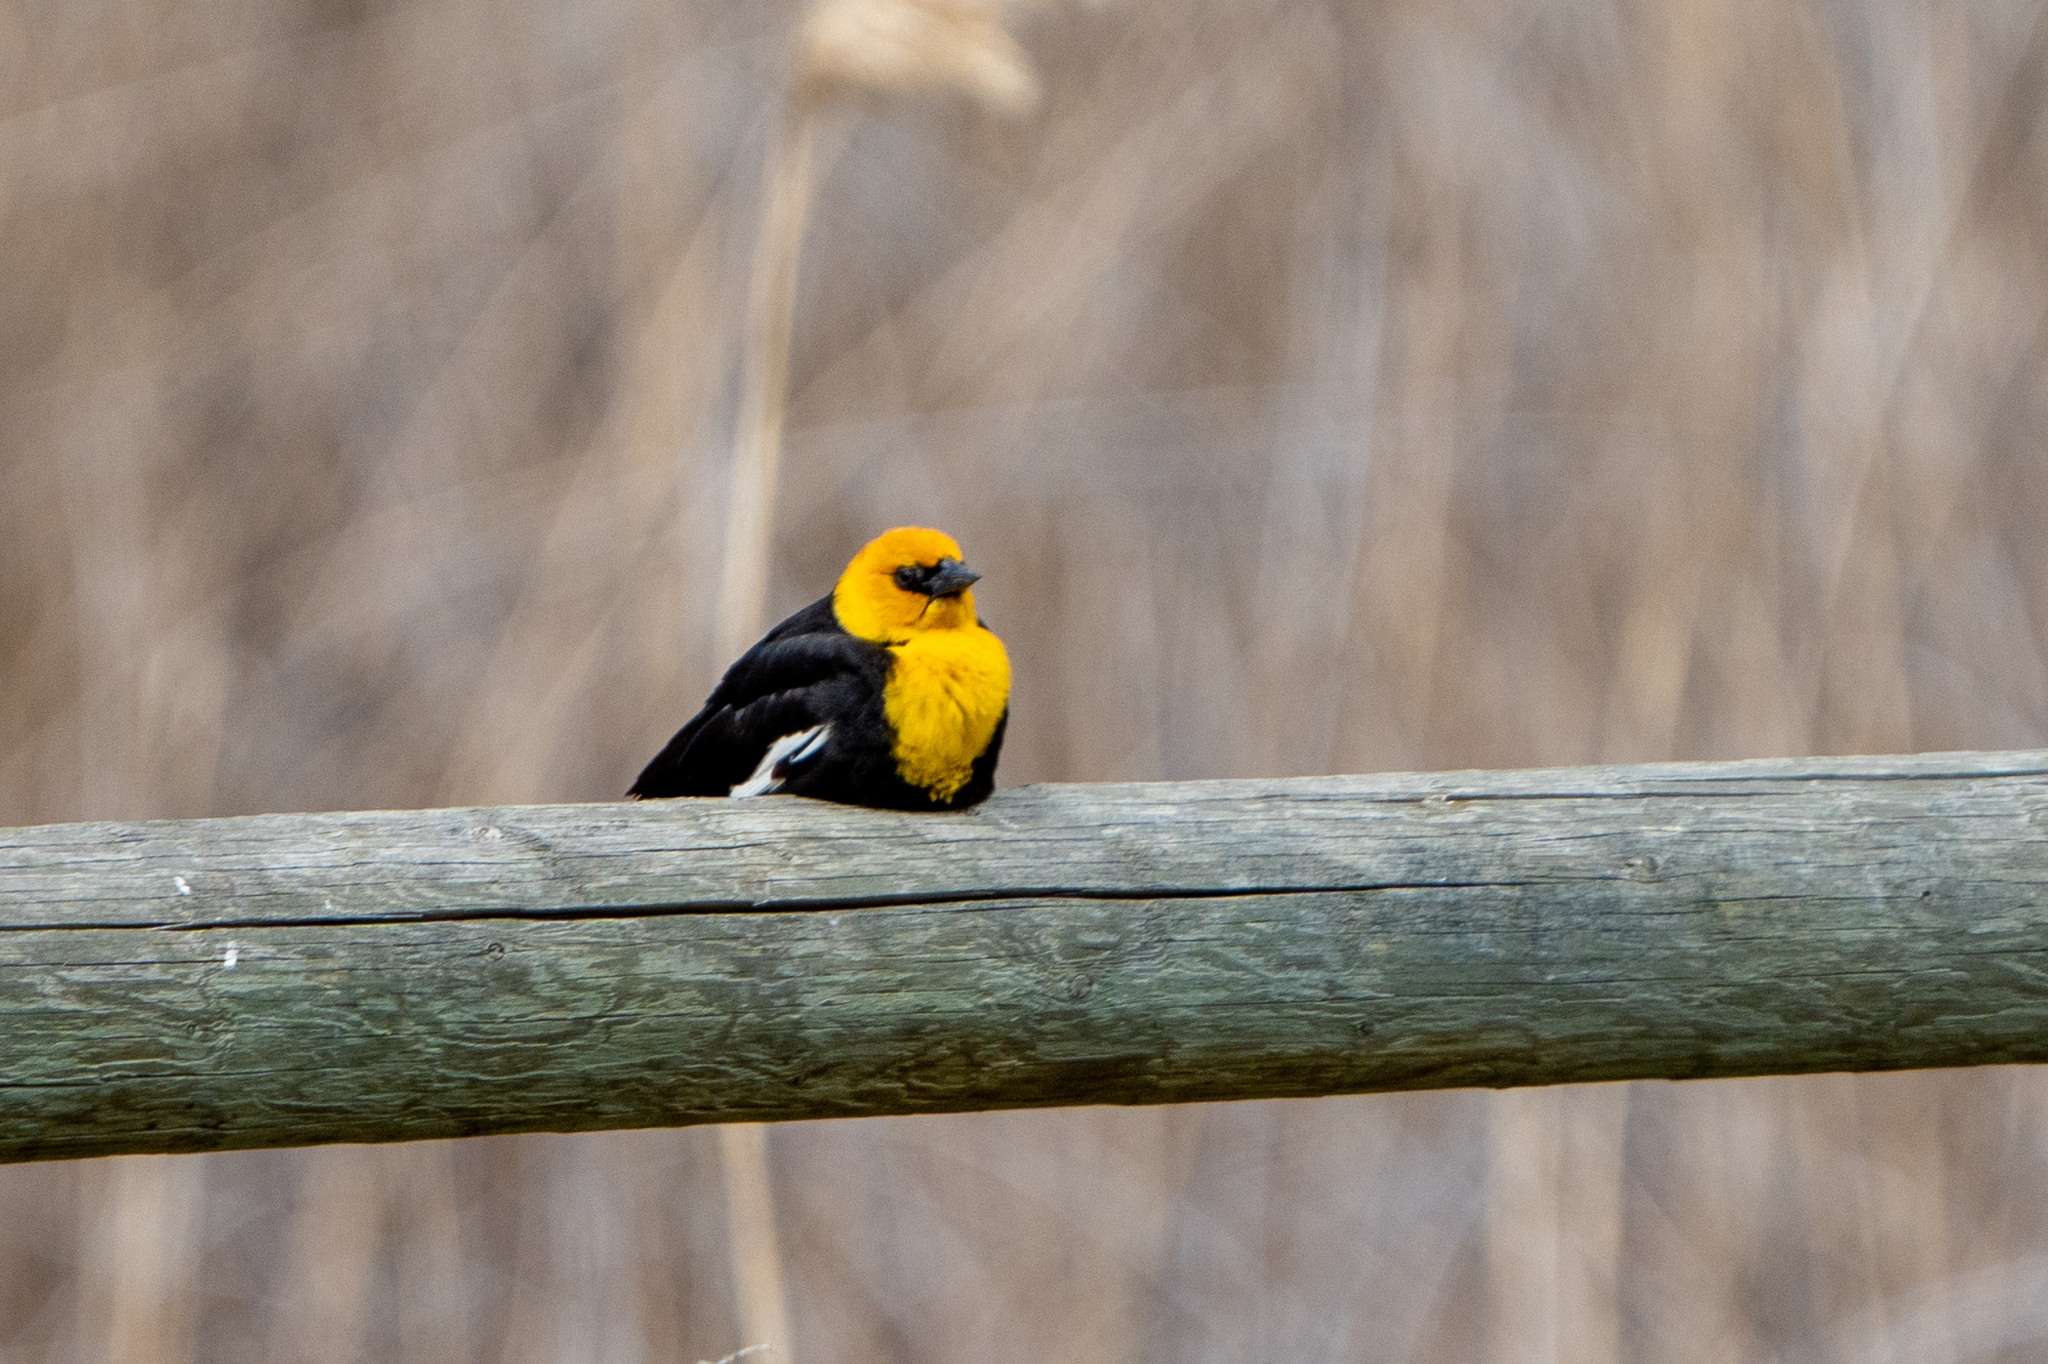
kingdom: Animalia
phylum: Chordata
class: Aves
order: Passeriformes
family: Icteridae
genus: Xanthocephalus
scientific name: Xanthocephalus xanthocephalus
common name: Yellow-headed blackbird
